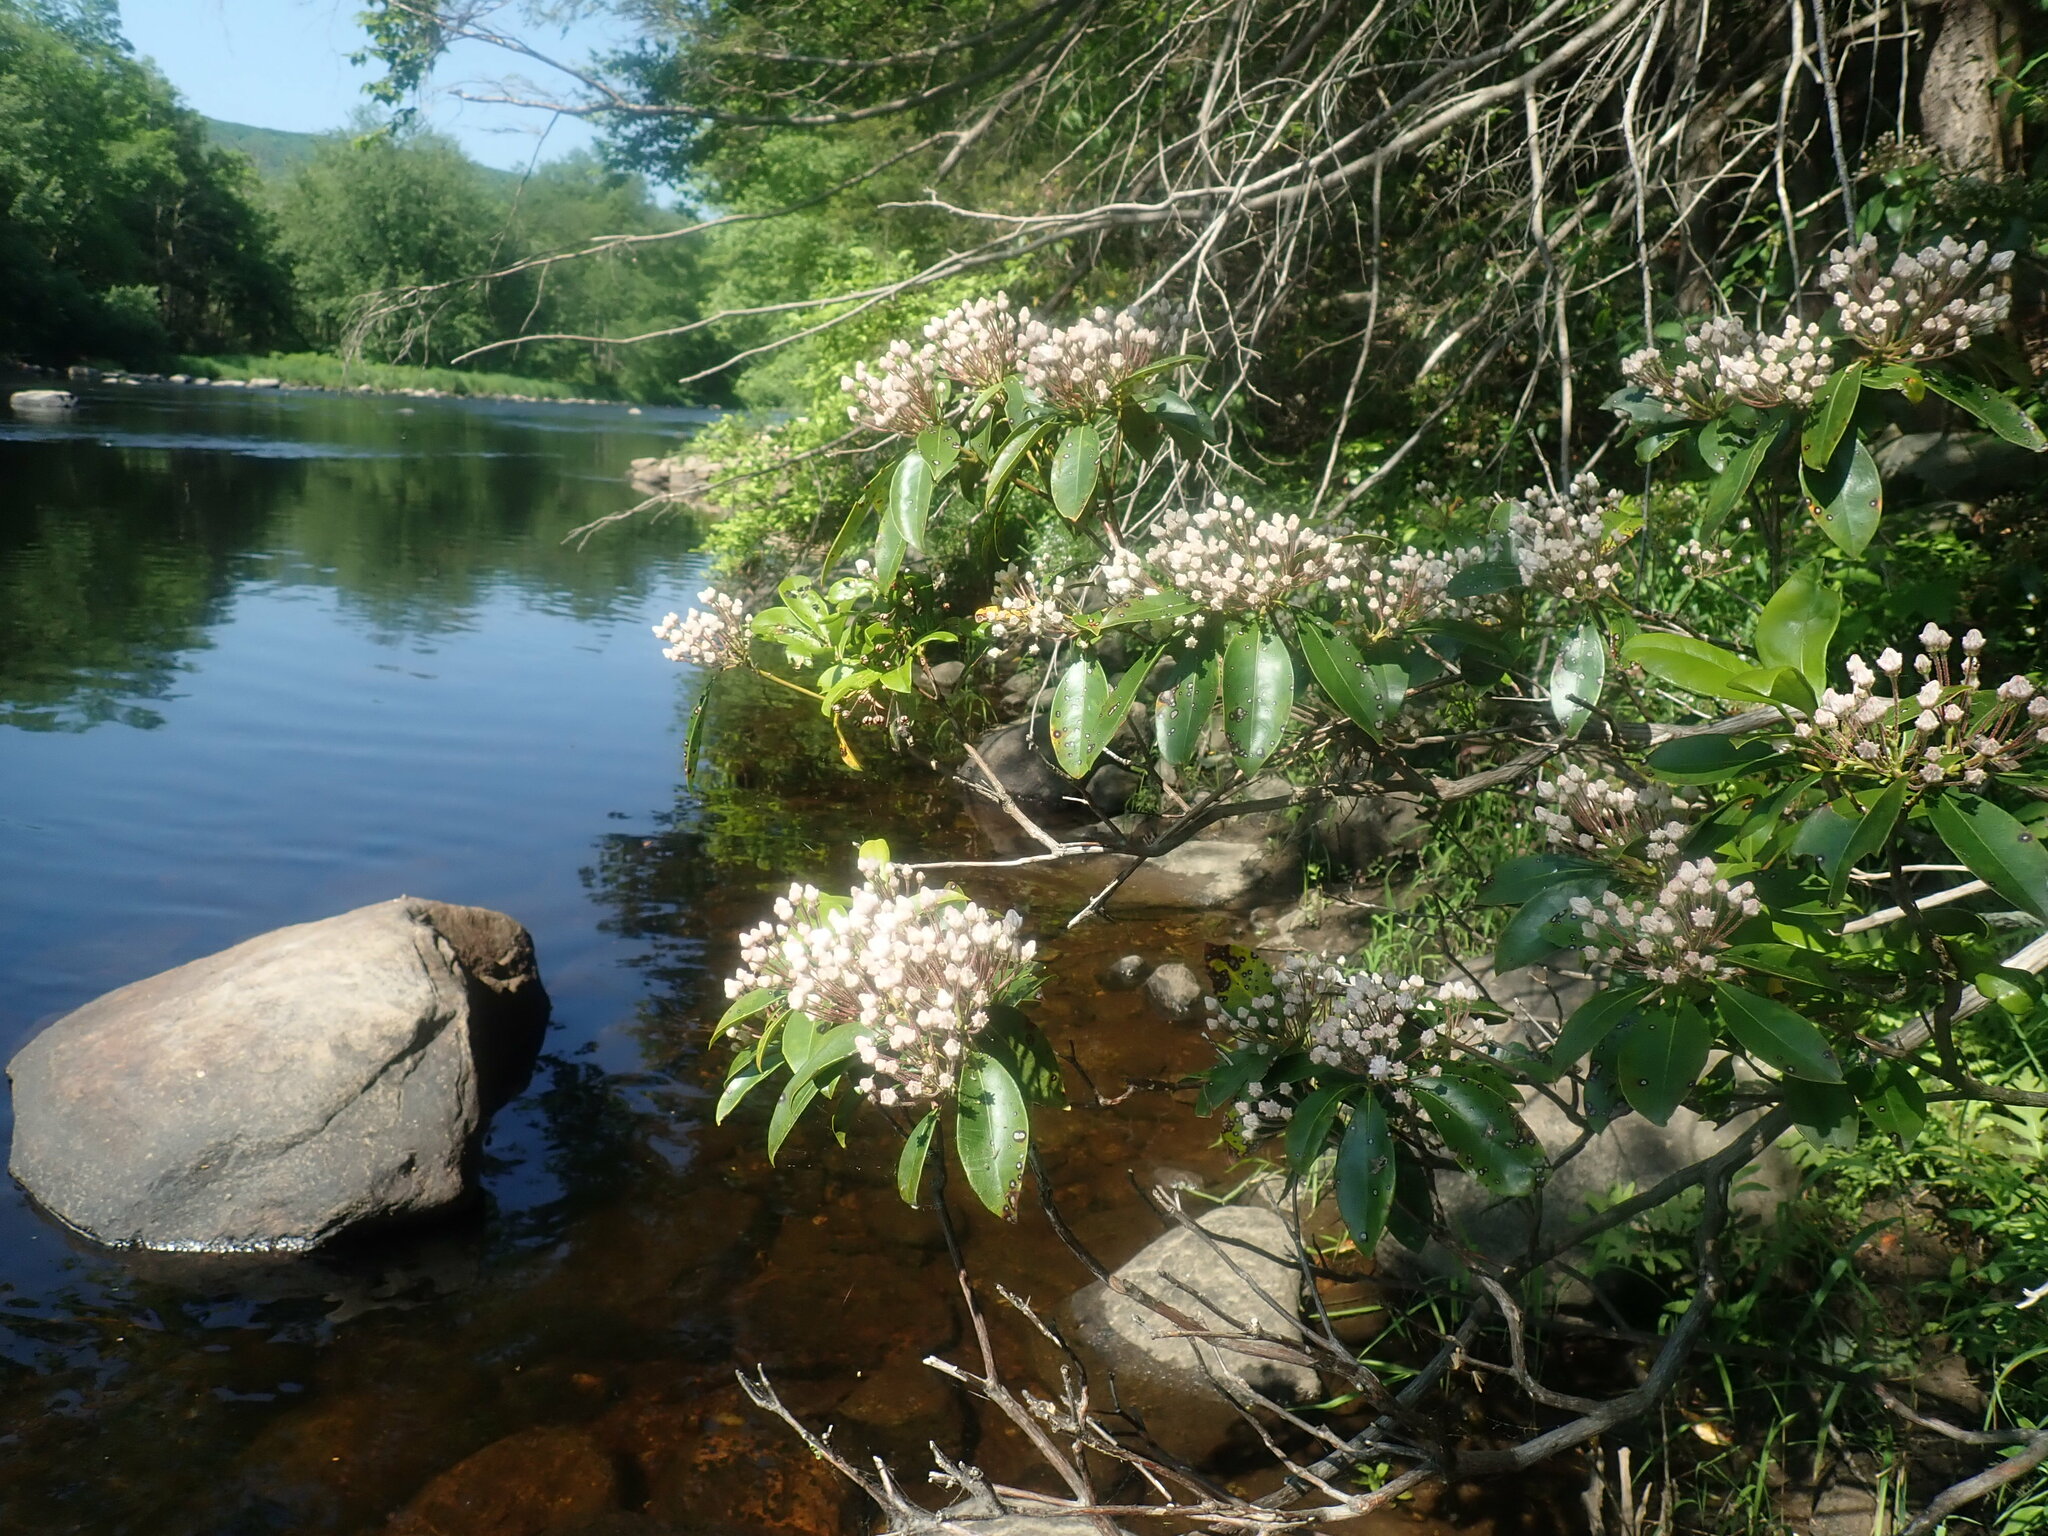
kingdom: Plantae
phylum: Tracheophyta
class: Magnoliopsida
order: Ericales
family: Ericaceae
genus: Kalmia
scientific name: Kalmia latifolia
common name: Mountain-laurel
